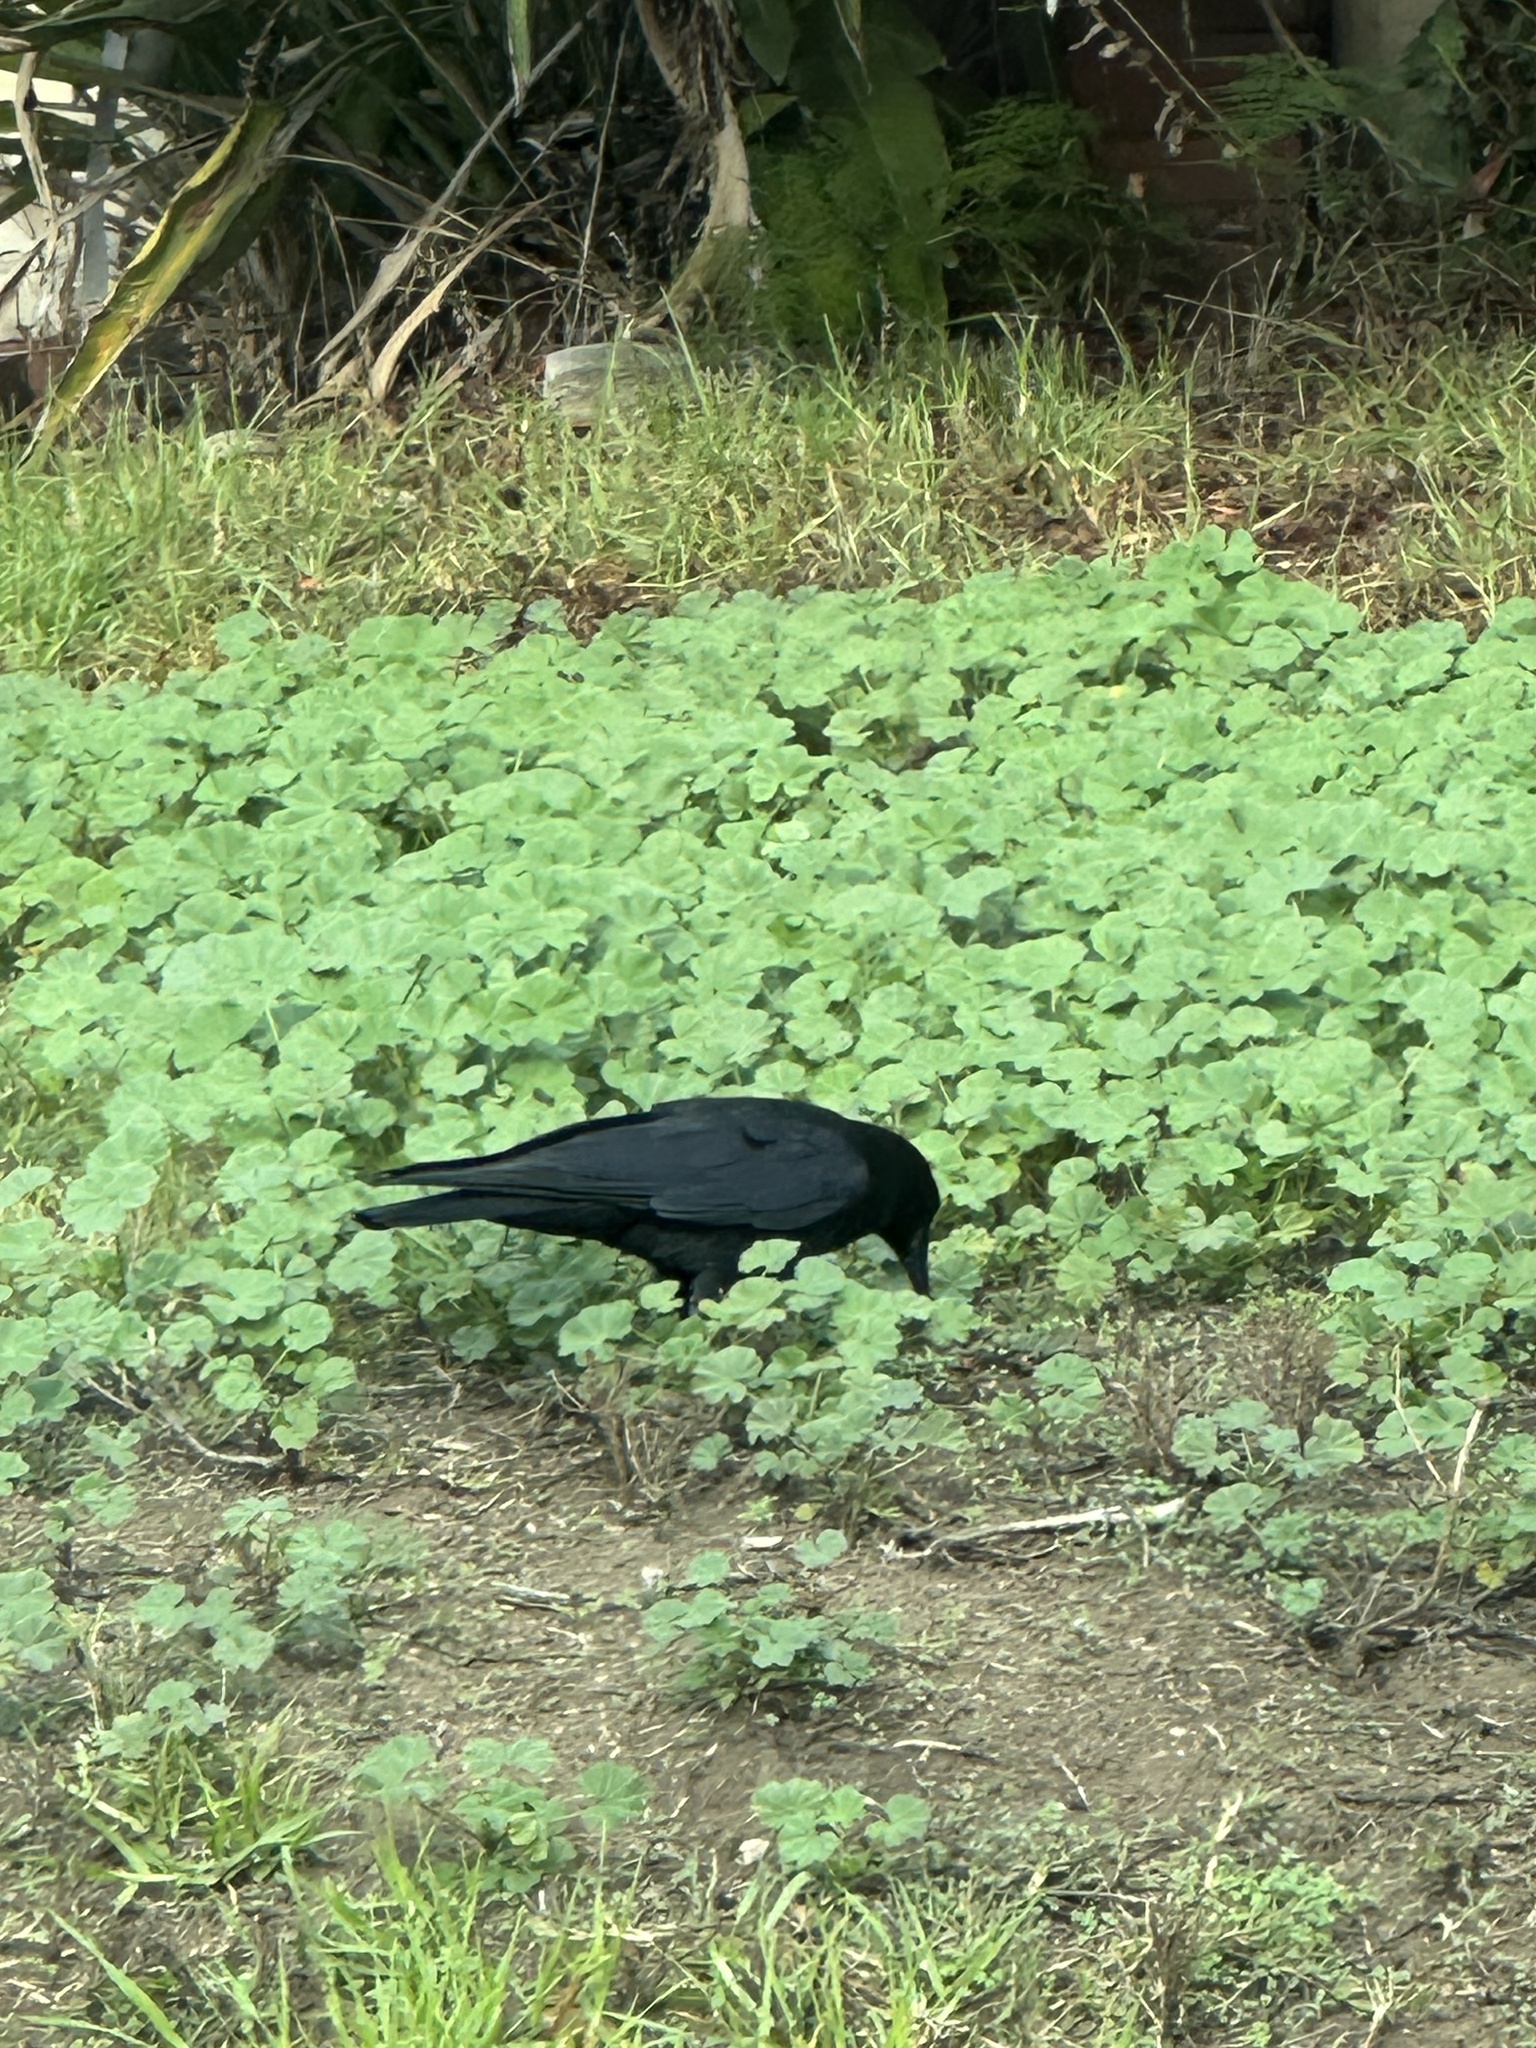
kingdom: Animalia
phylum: Chordata
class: Aves
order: Passeriformes
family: Corvidae
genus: Corvus
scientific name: Corvus brachyrhynchos
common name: American crow
